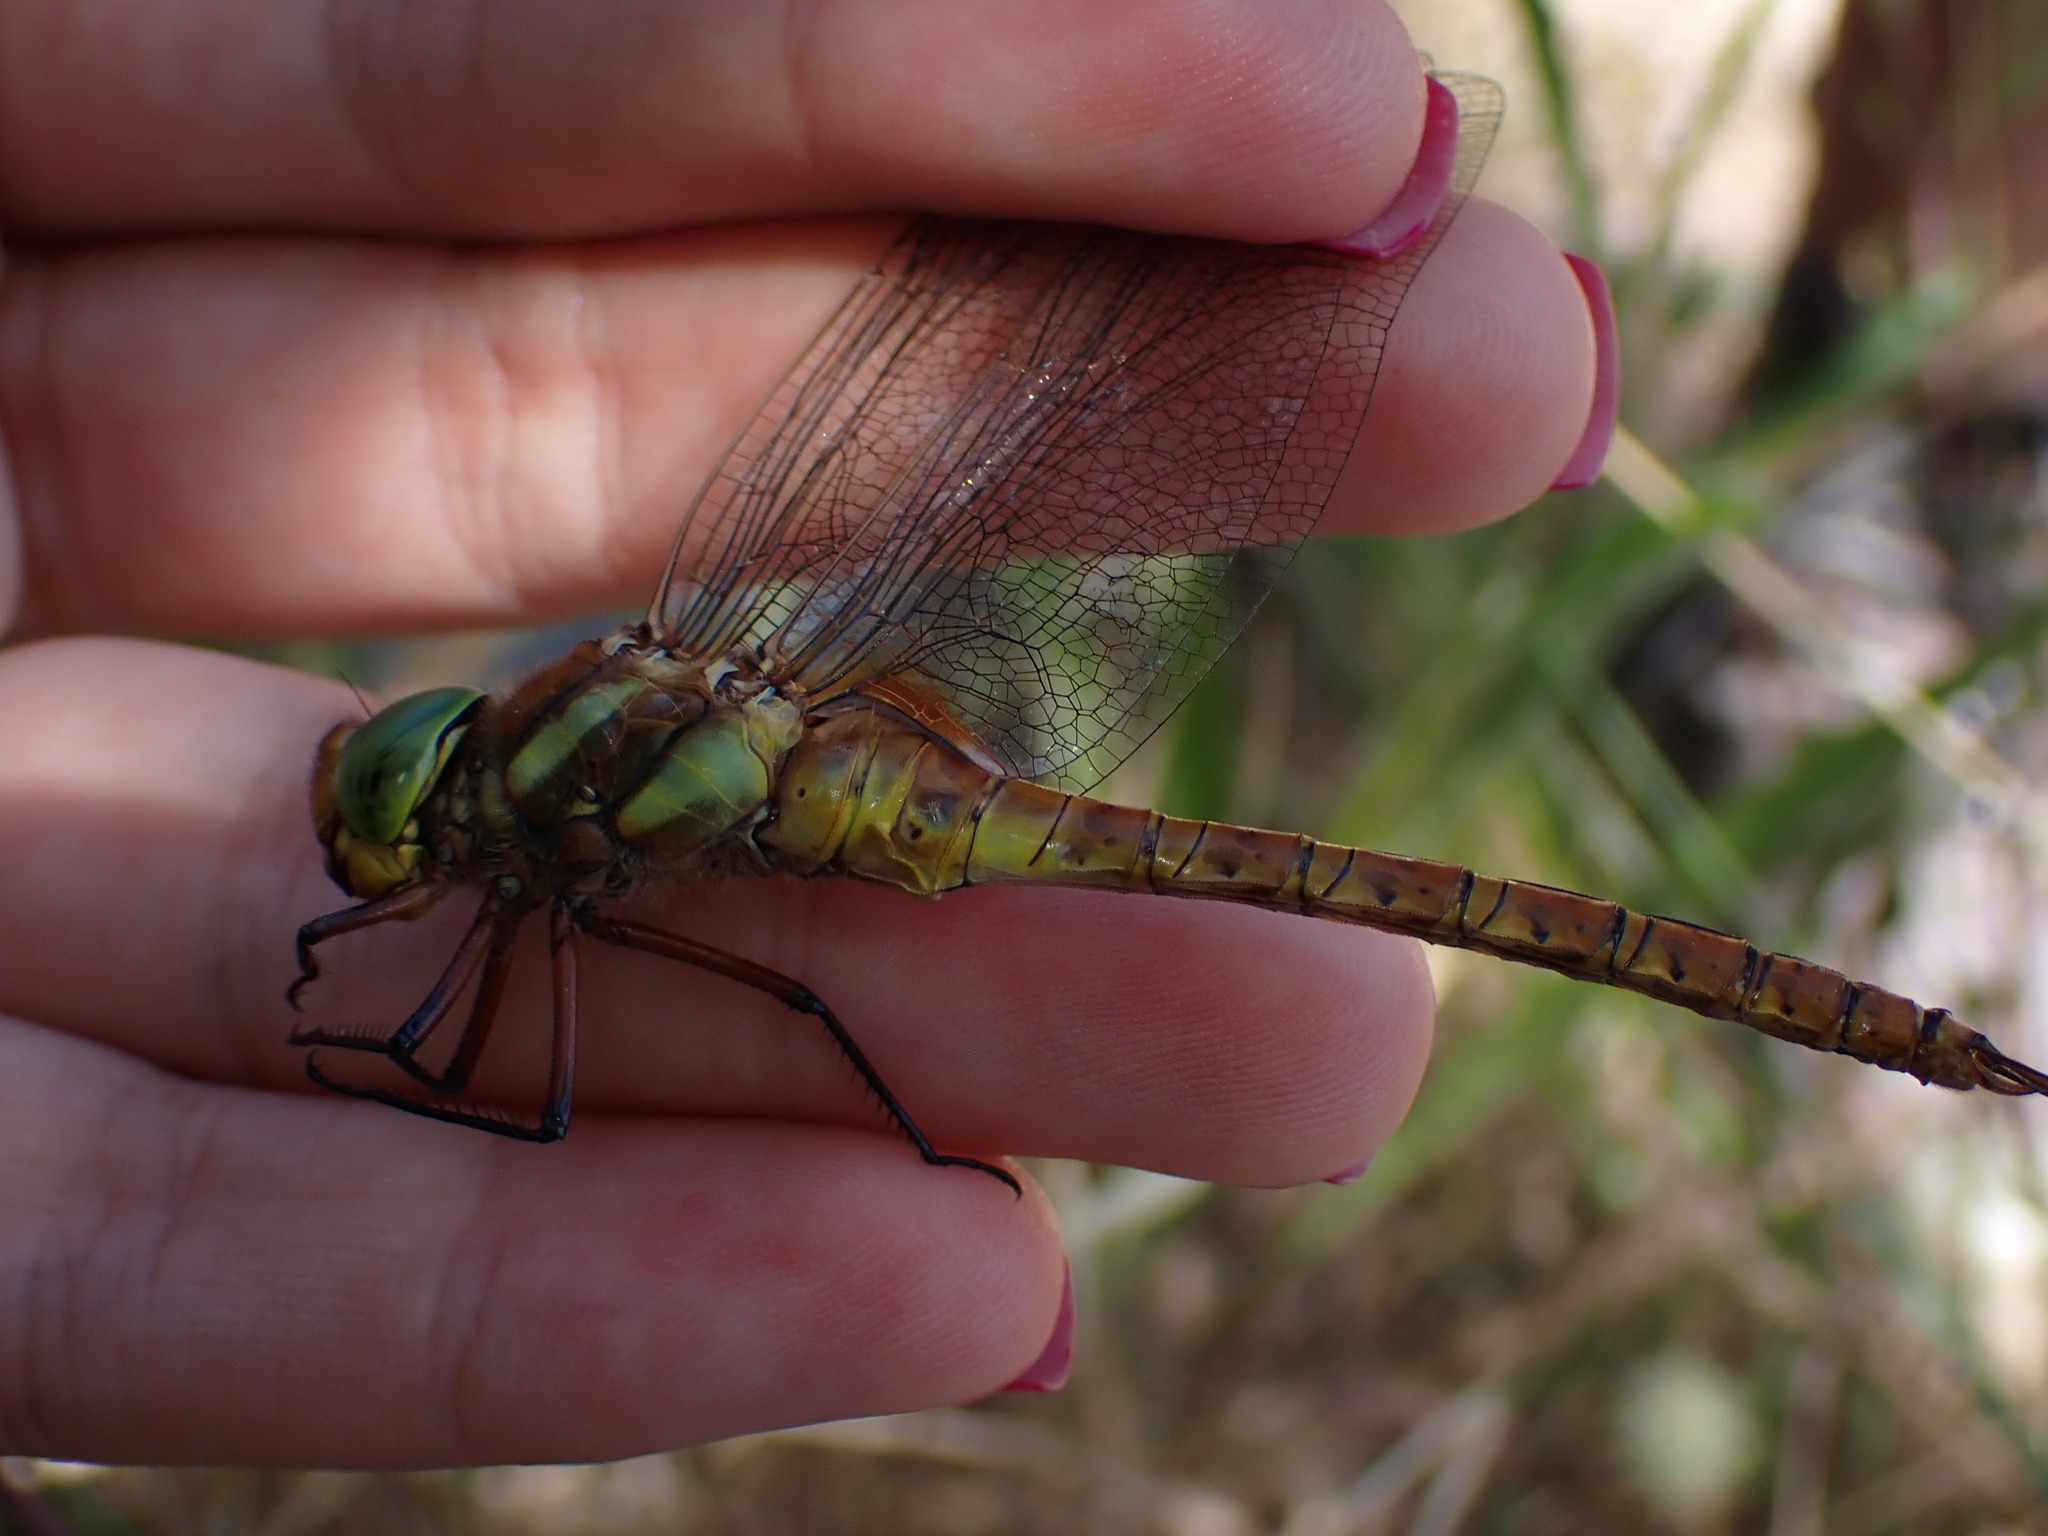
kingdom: Animalia
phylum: Arthropoda
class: Insecta
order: Odonata
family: Aeshnidae
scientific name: Aeshnidae
